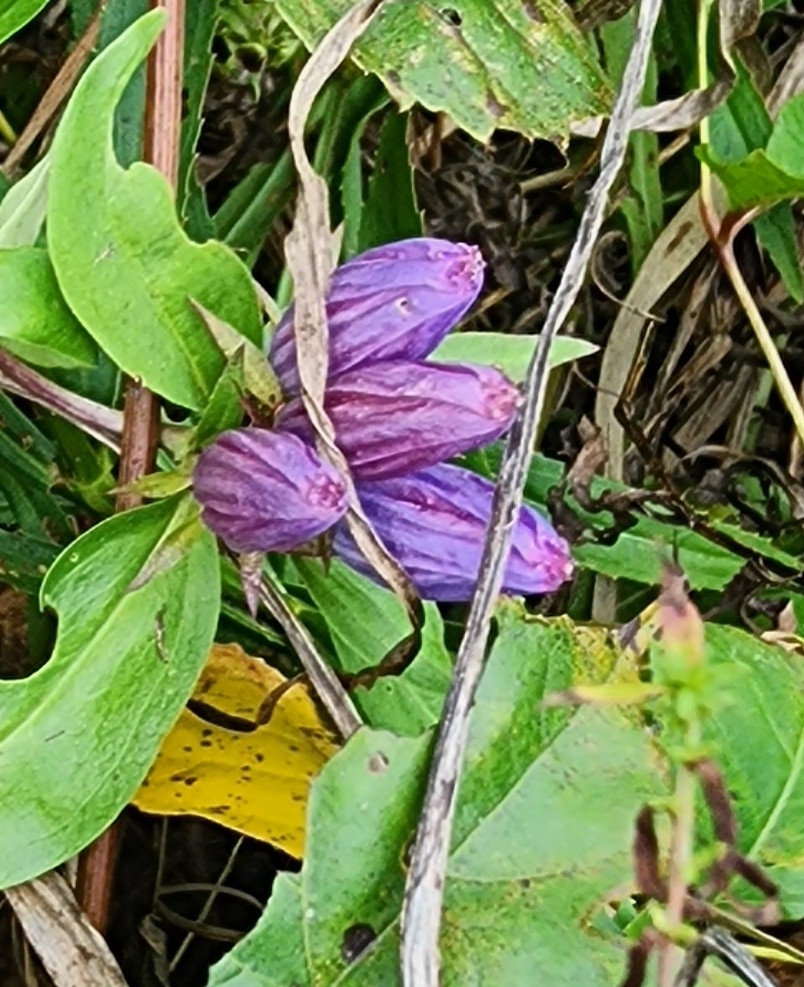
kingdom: Plantae
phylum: Tracheophyta
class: Magnoliopsida
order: Gentianales
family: Gentianaceae
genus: Gentiana
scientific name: Gentiana andrewsii
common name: Bottle gentian
